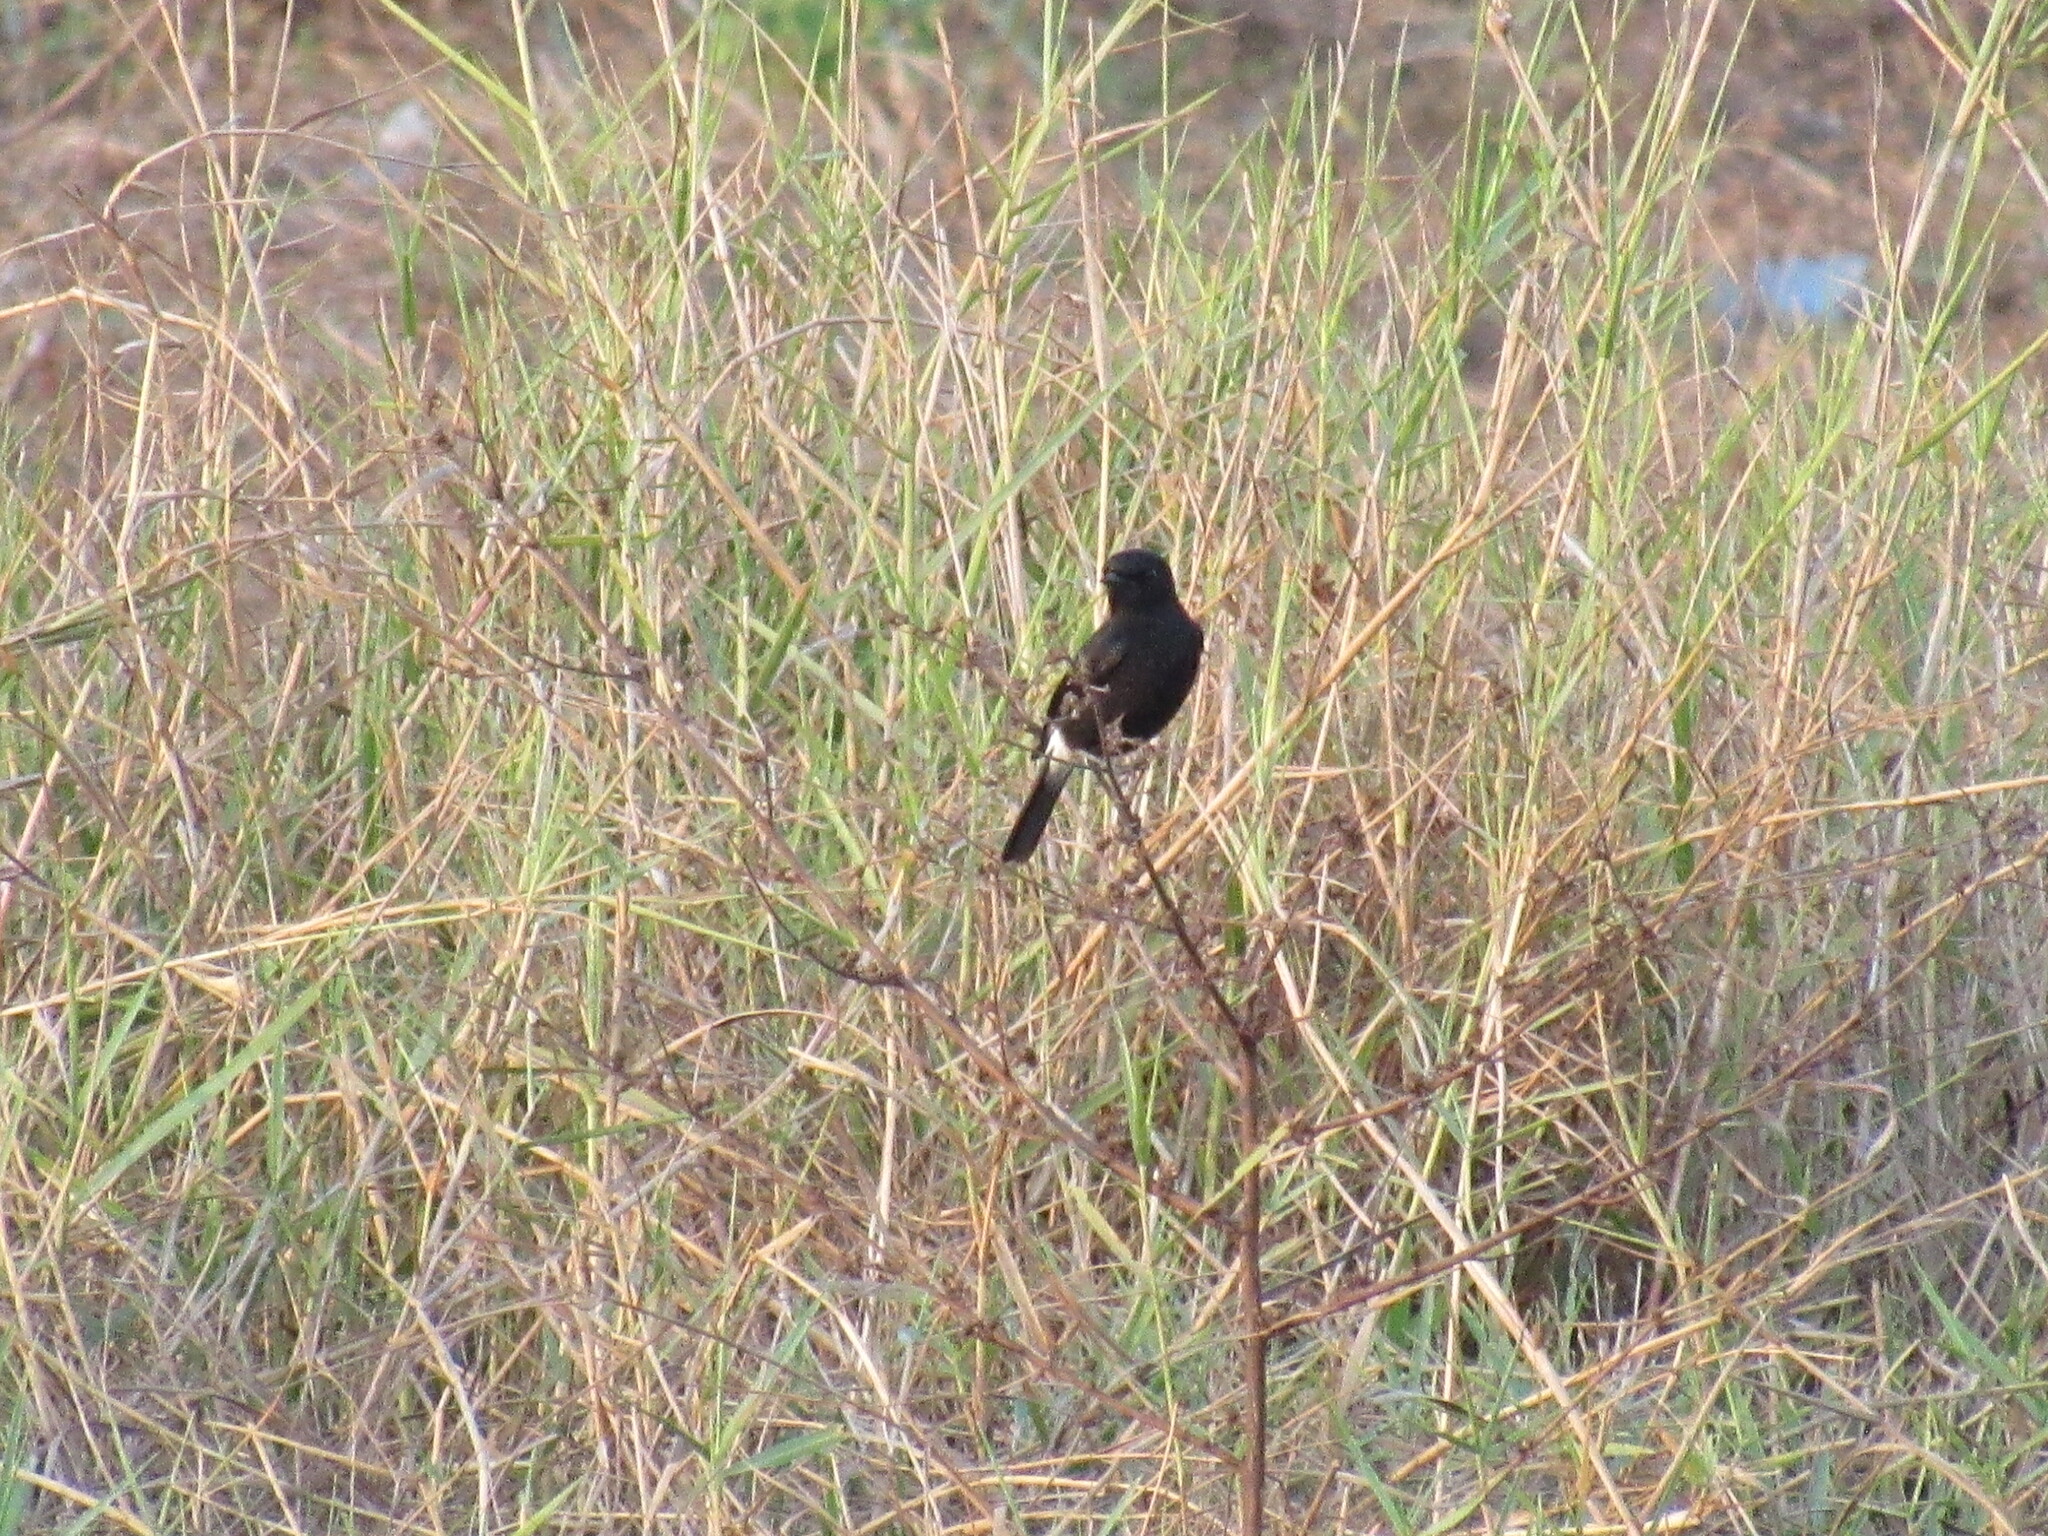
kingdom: Animalia
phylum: Chordata
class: Aves
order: Passeriformes
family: Muscicapidae
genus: Saxicola
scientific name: Saxicola caprata
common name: Pied bush chat
